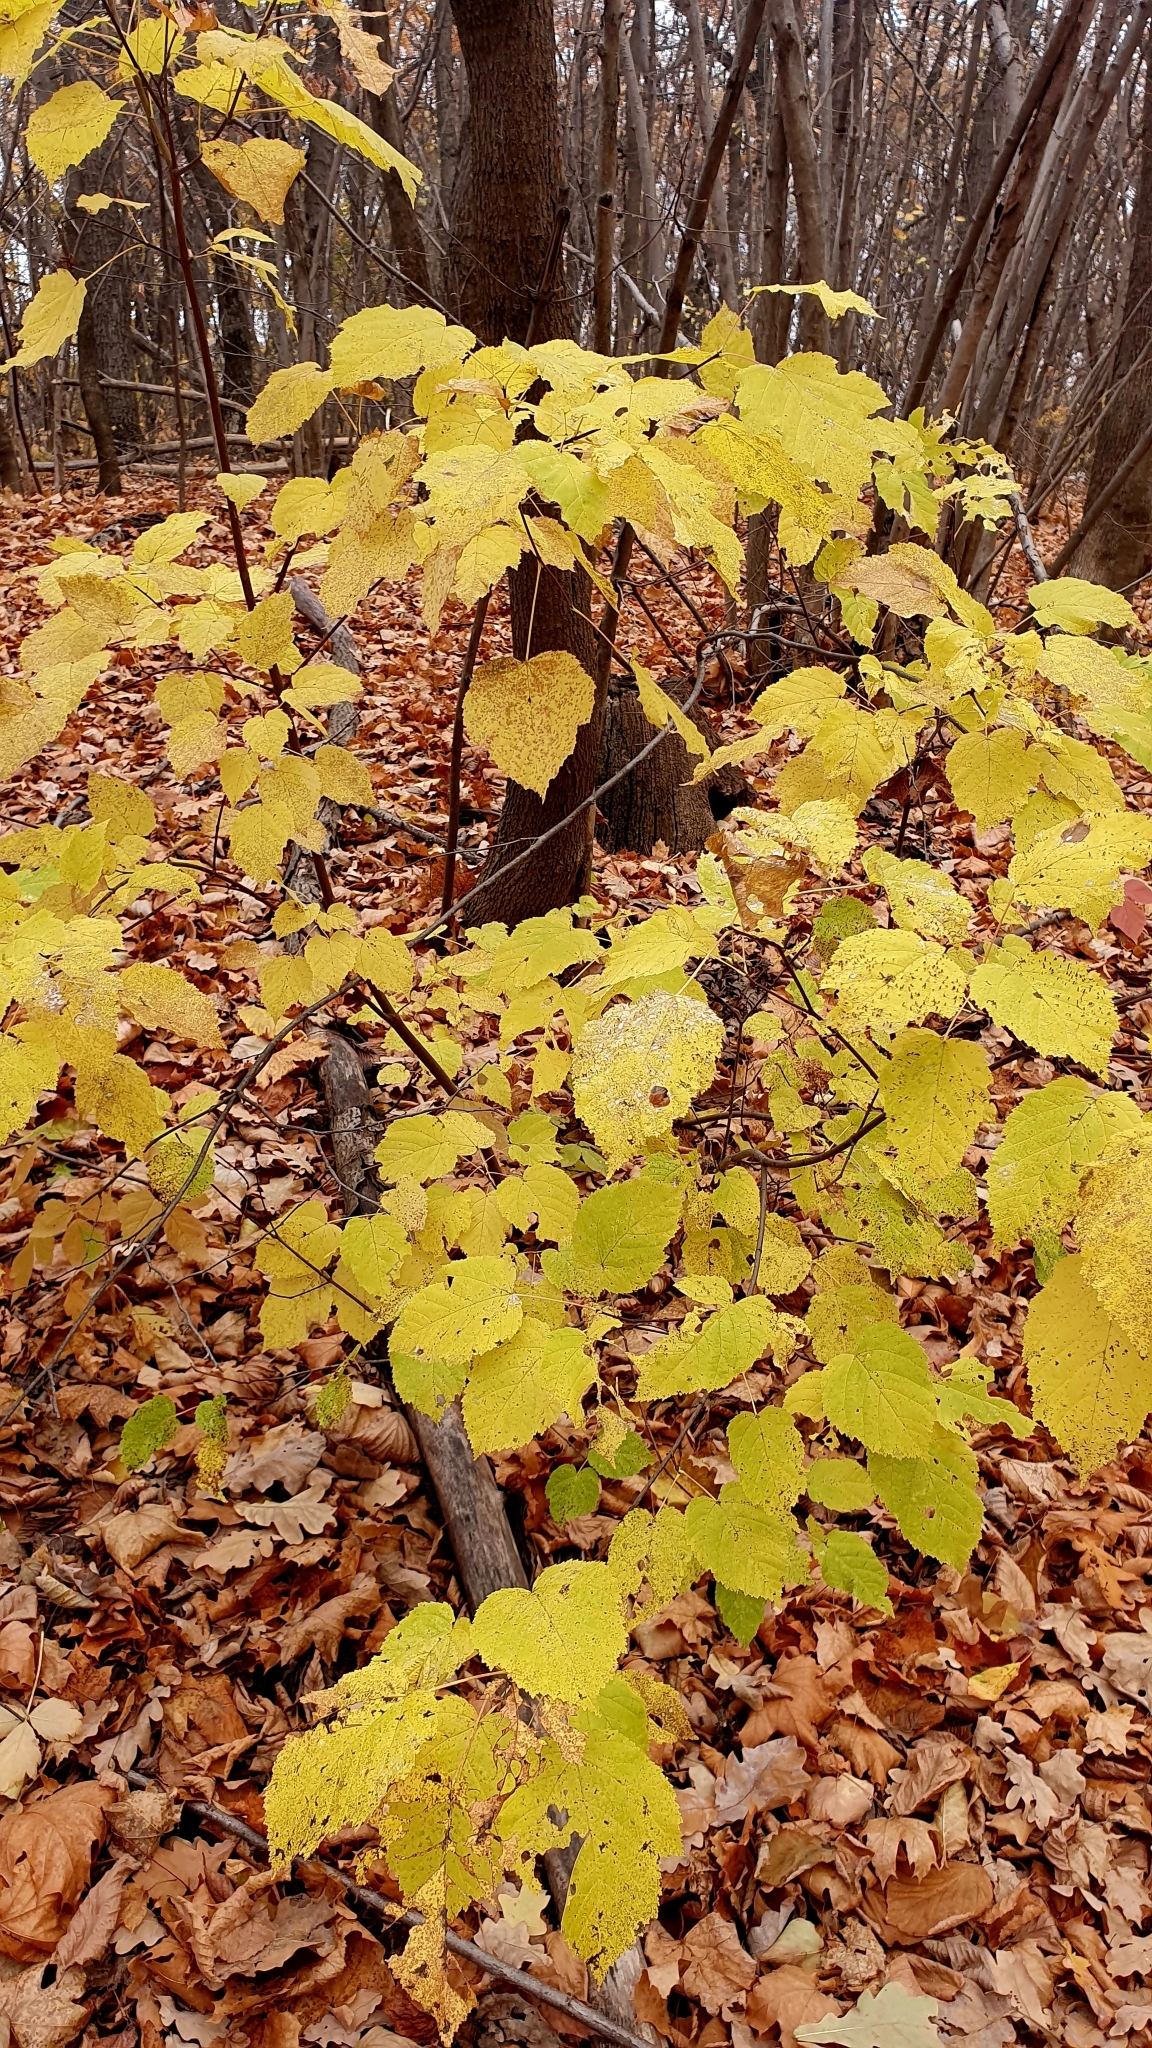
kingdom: Plantae
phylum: Tracheophyta
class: Magnoliopsida
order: Sapindales
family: Sapindaceae
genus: Acer
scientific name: Acer tataricum
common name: Tartar maple
